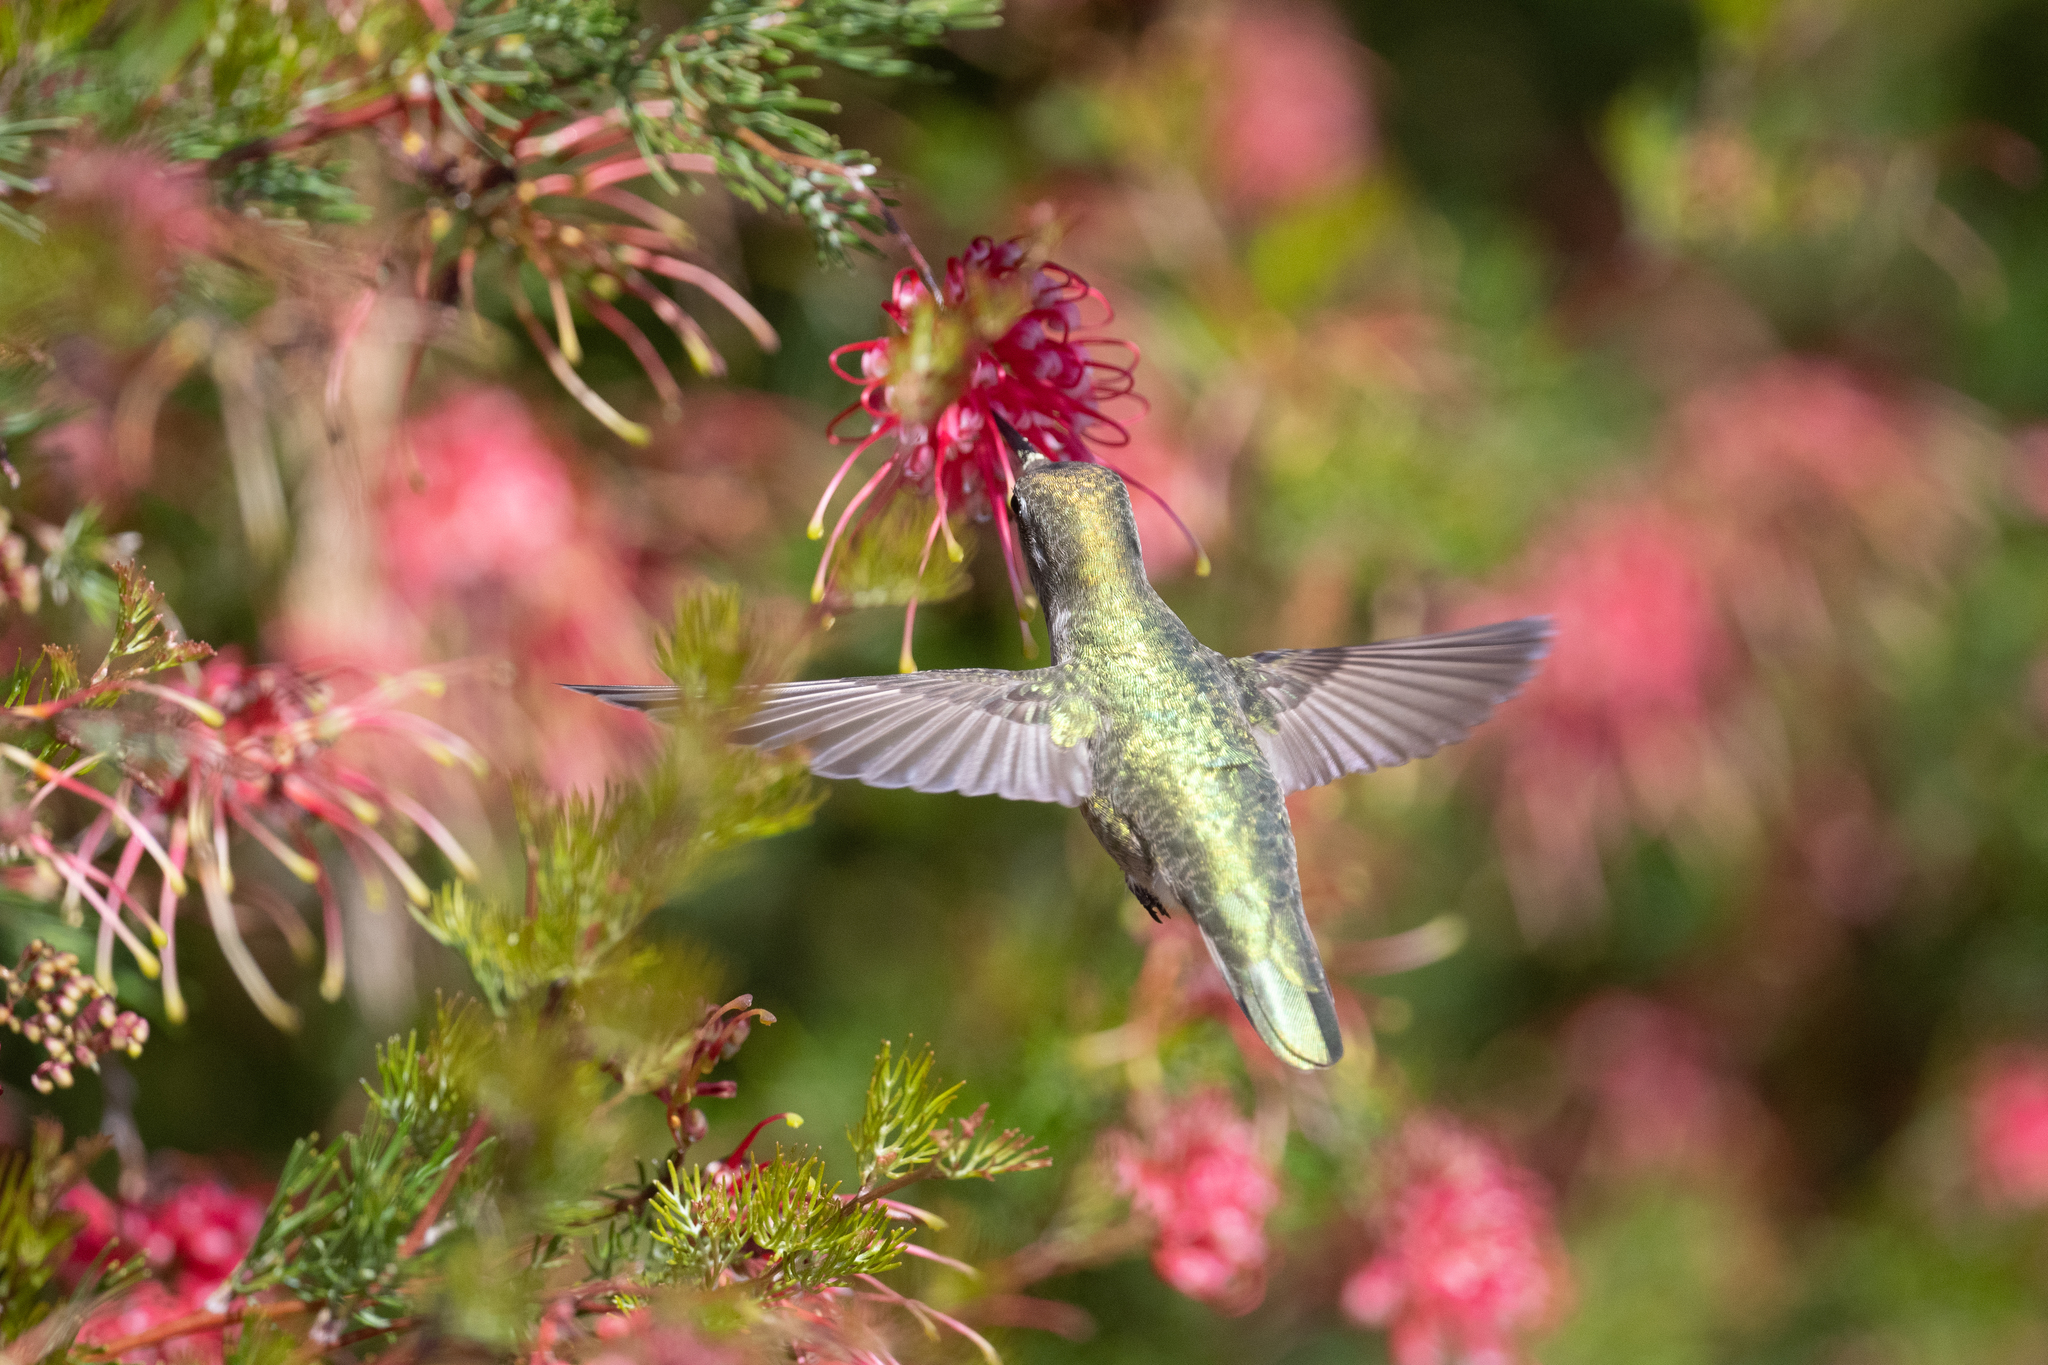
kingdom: Animalia
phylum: Chordata
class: Aves
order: Apodiformes
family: Trochilidae
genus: Calypte
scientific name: Calypte anna
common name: Anna's hummingbird
